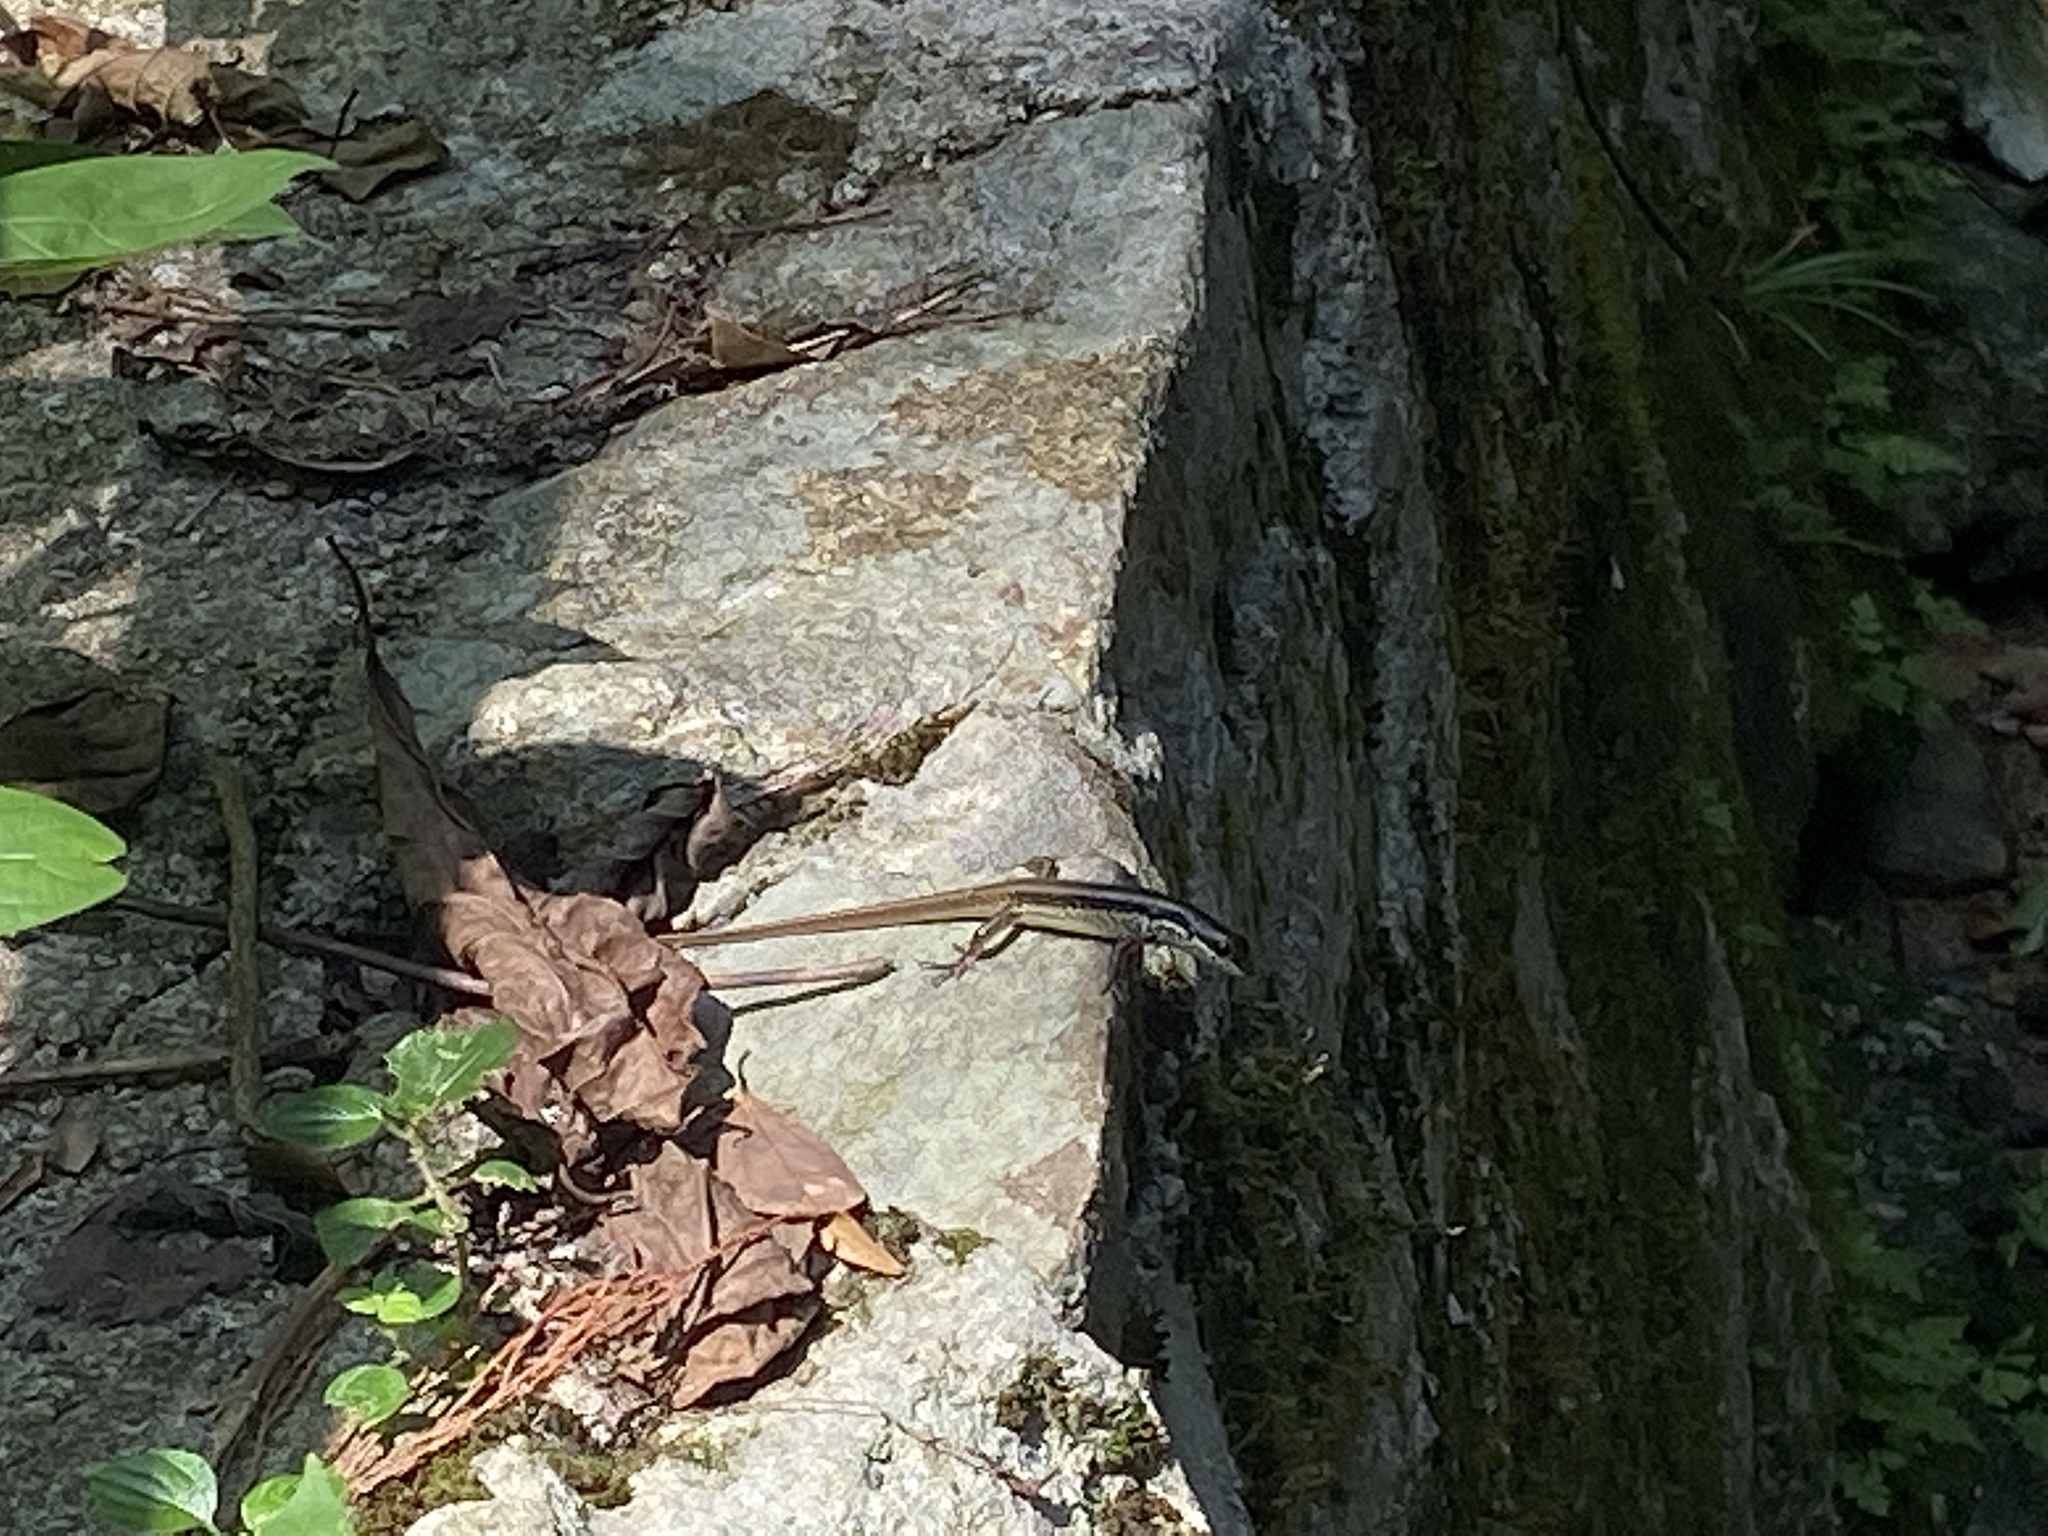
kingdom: Animalia
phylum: Chordata
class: Squamata
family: Scincidae
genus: Eutropis
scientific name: Eutropis longicaudata
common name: Long-tailed sun skink
